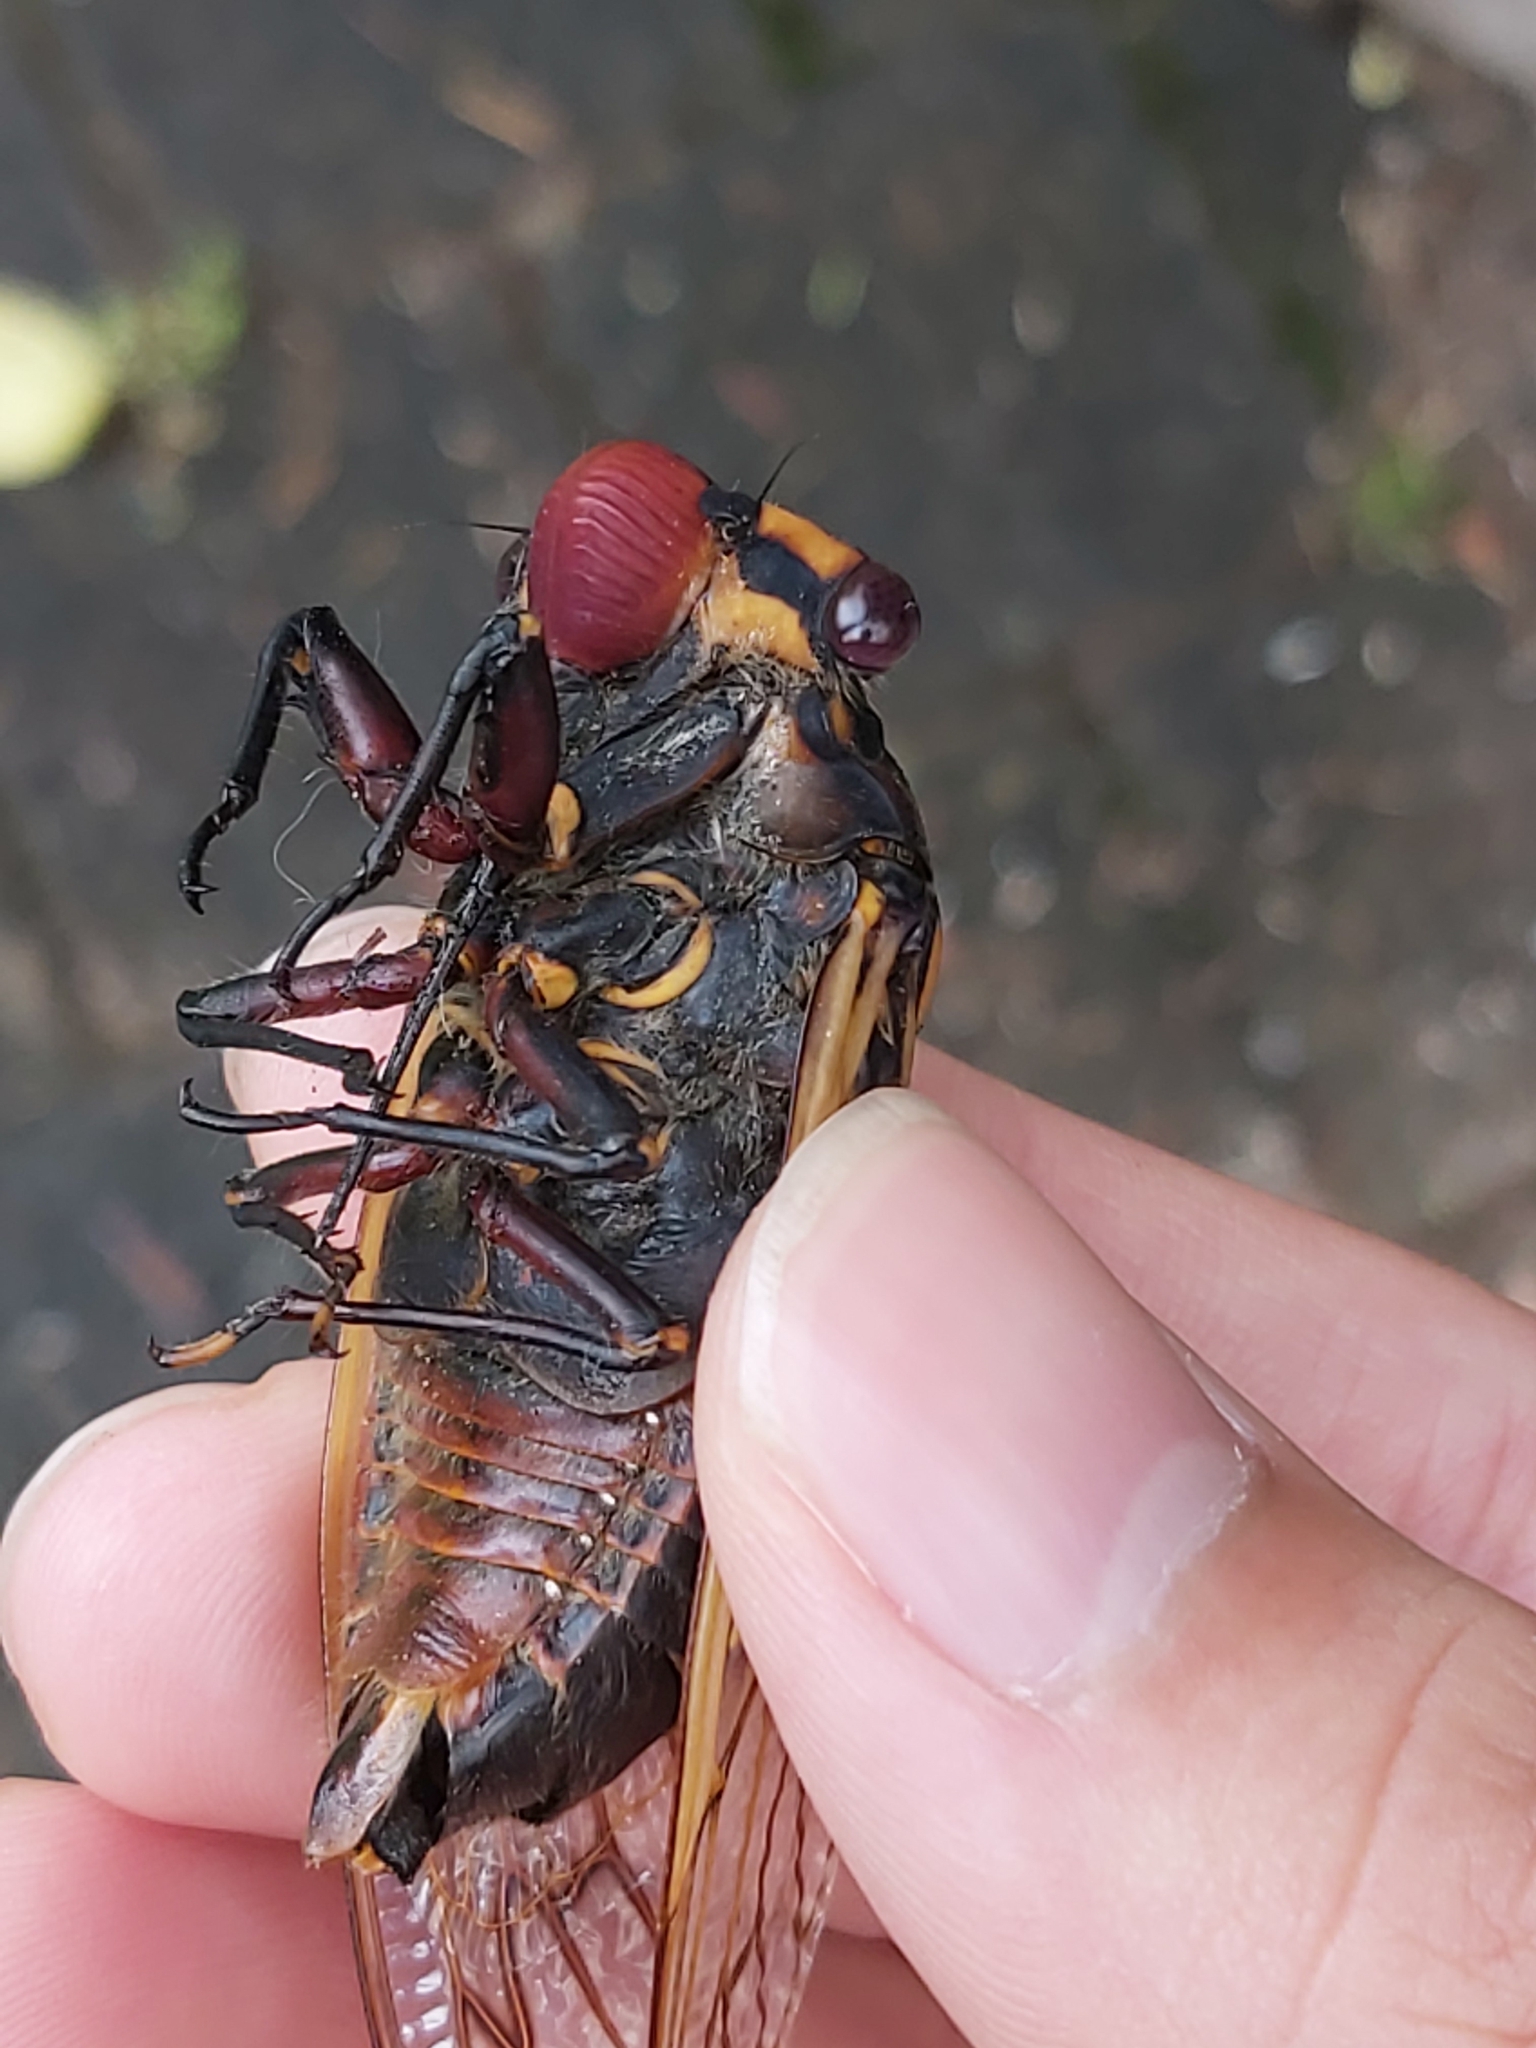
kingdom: Animalia
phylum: Arthropoda
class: Insecta
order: Hemiptera
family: Cicadidae
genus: Macrotristria
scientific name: Macrotristria angularis
